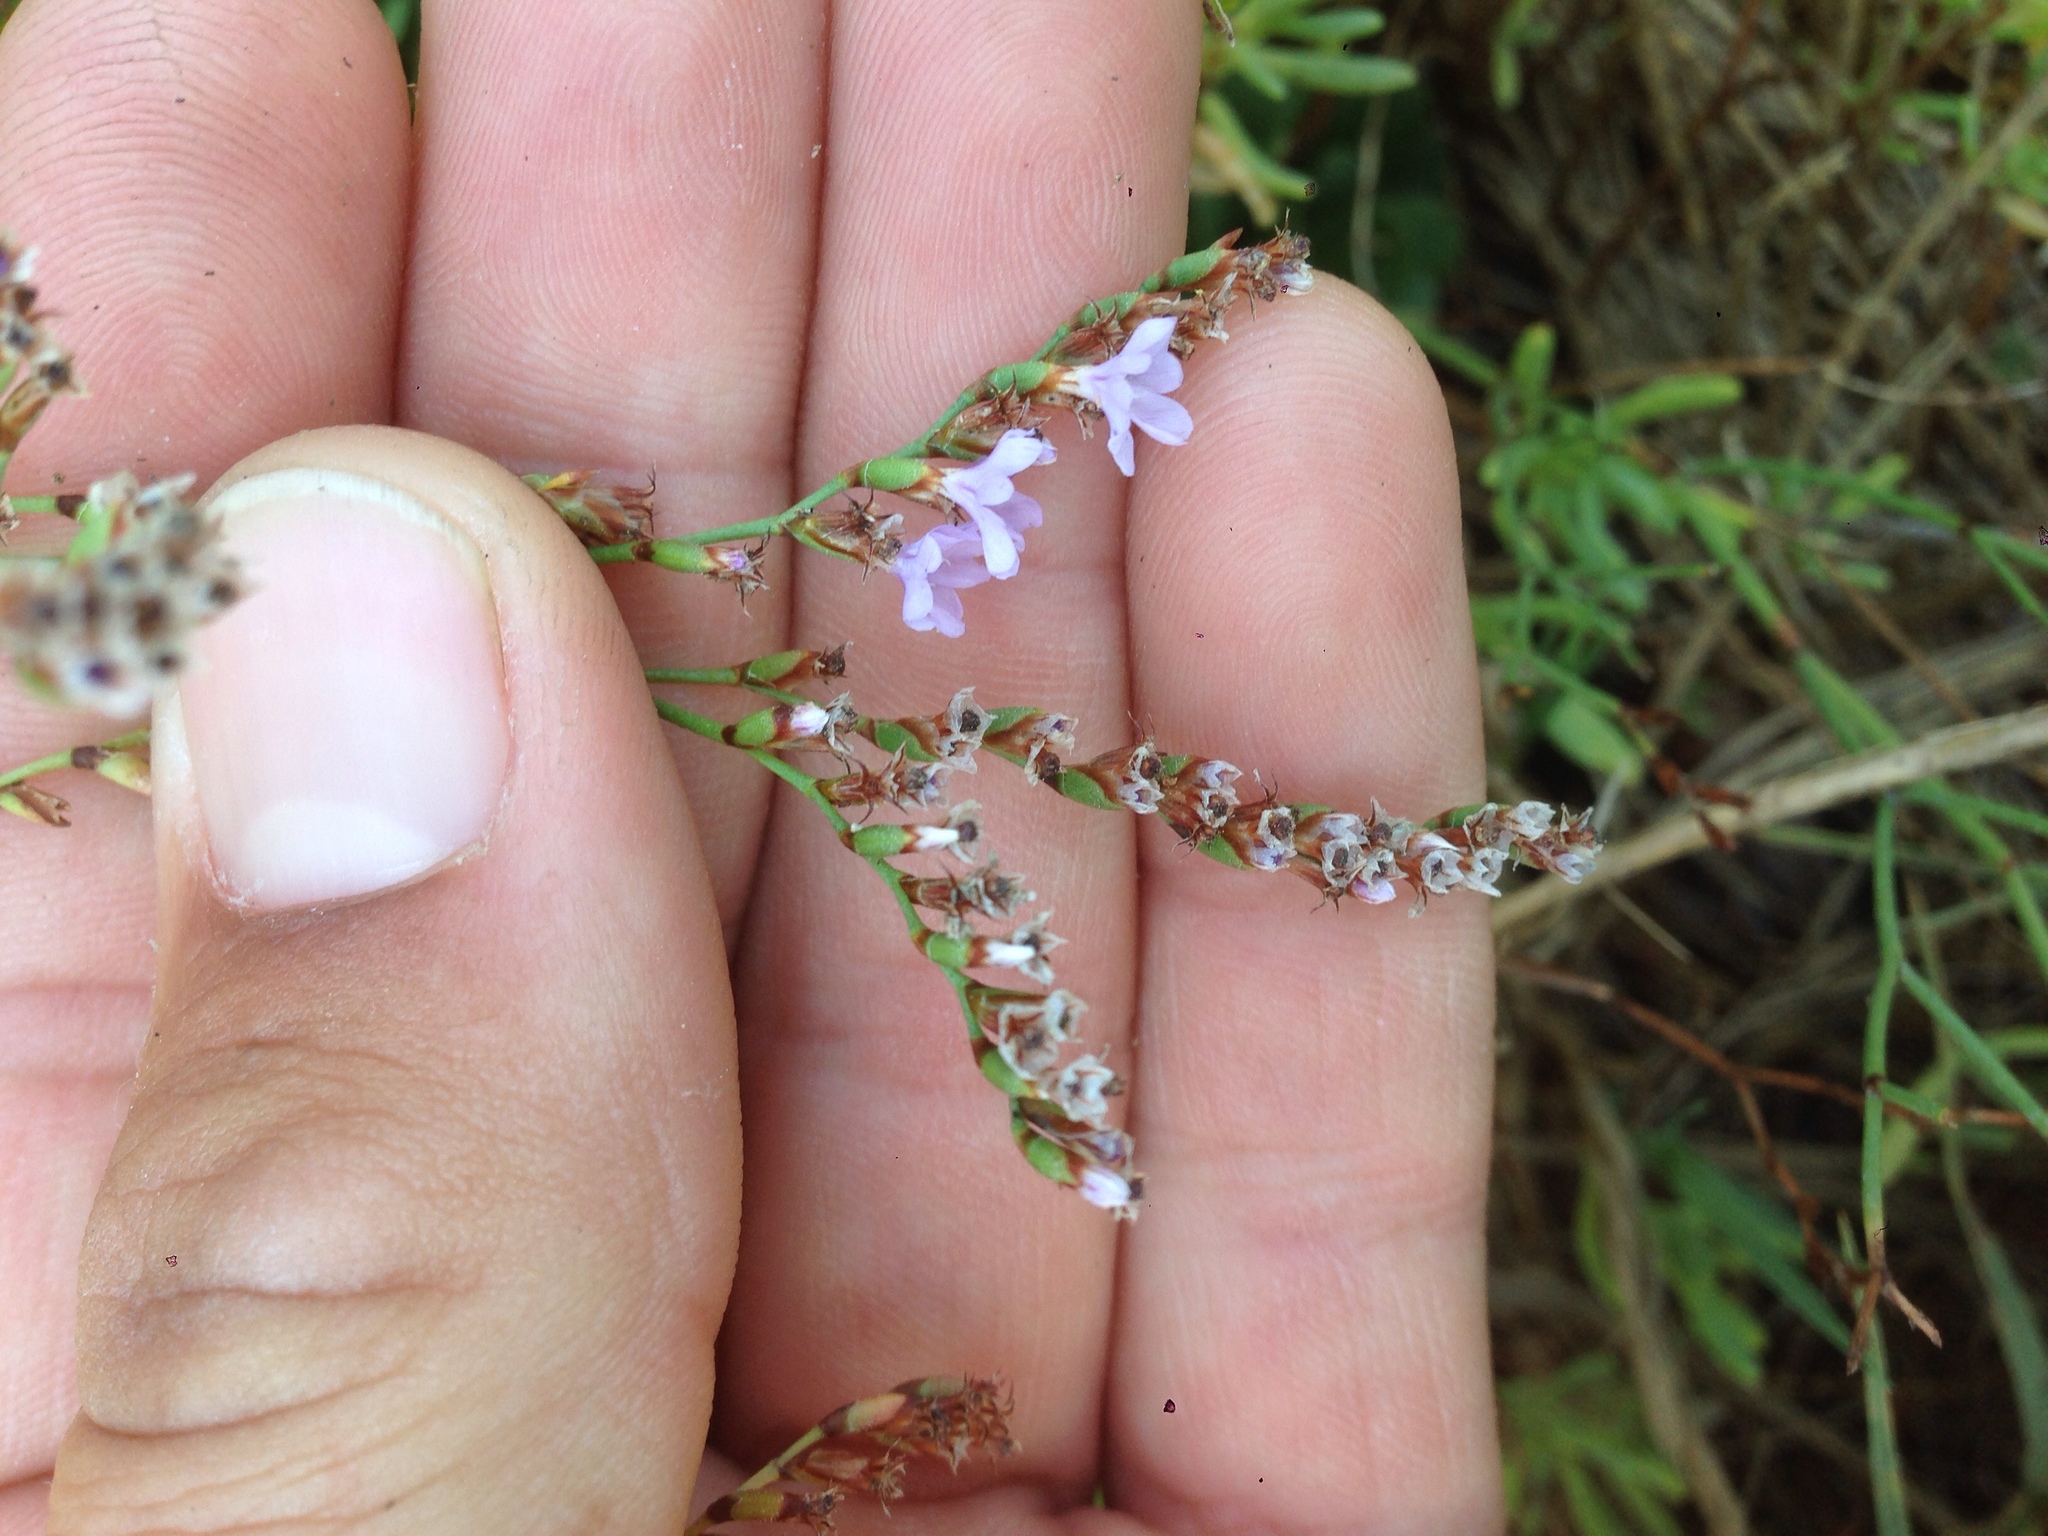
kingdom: Plantae
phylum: Tracheophyta
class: Magnoliopsida
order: Caryophyllales
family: Plumbaginaceae
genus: Limonium
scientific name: Limonium duriusculum
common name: European sea lavendar
